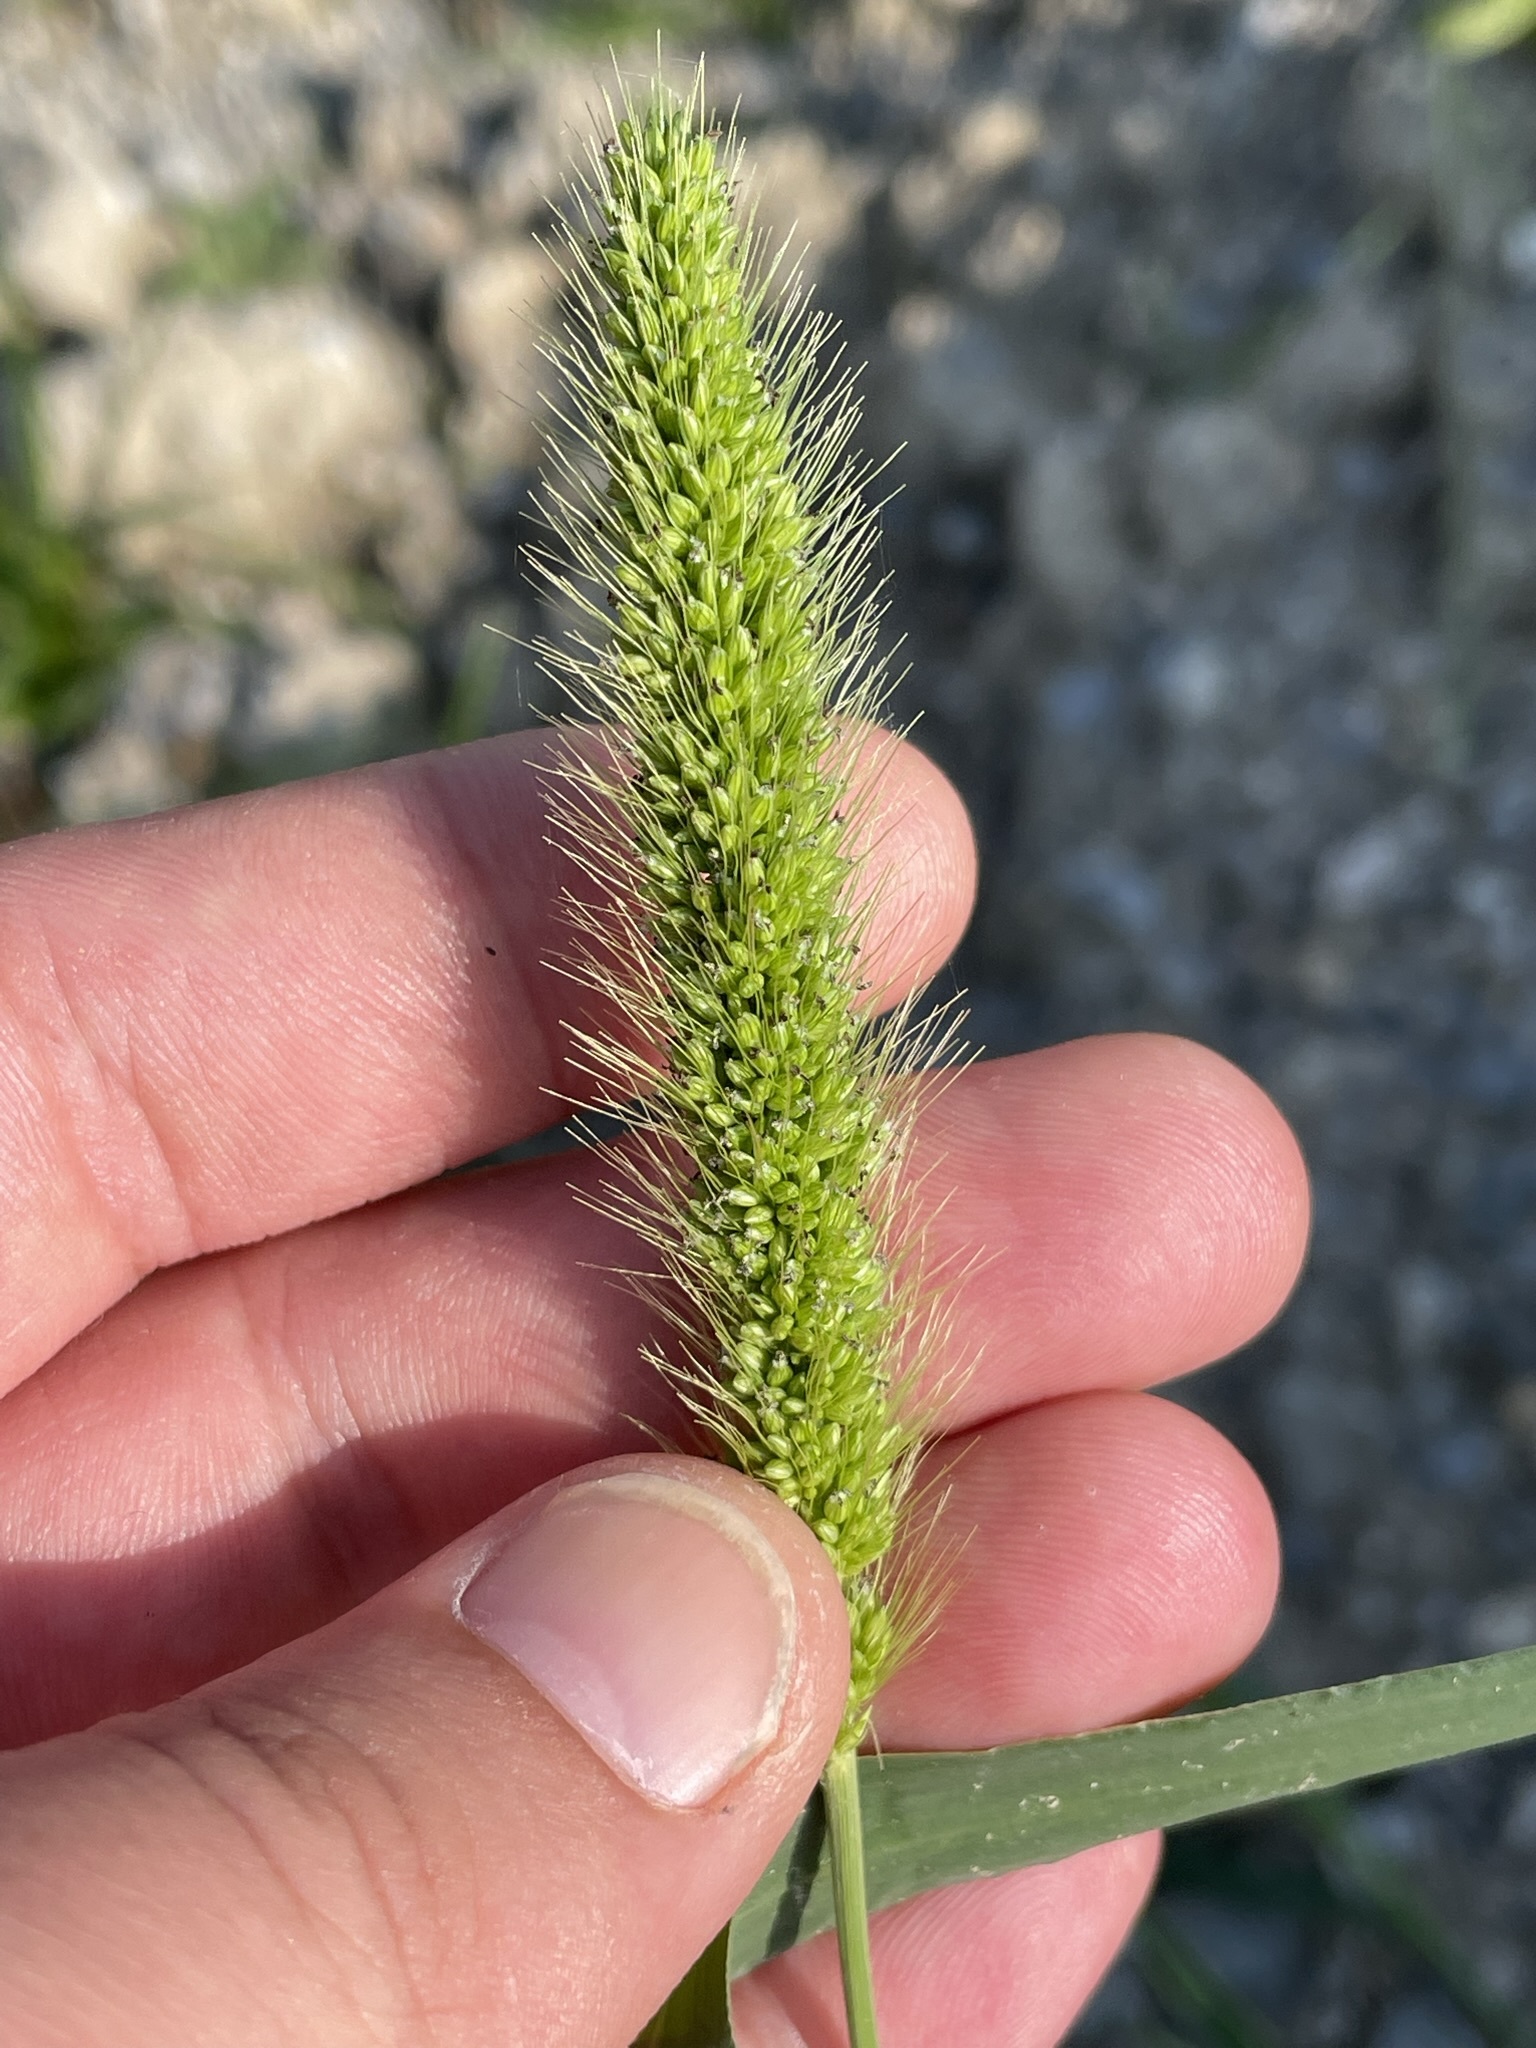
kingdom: Plantae
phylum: Tracheophyta
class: Liliopsida
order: Poales
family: Poaceae
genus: Setaria
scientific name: Setaria viridis
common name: Green bristlegrass
